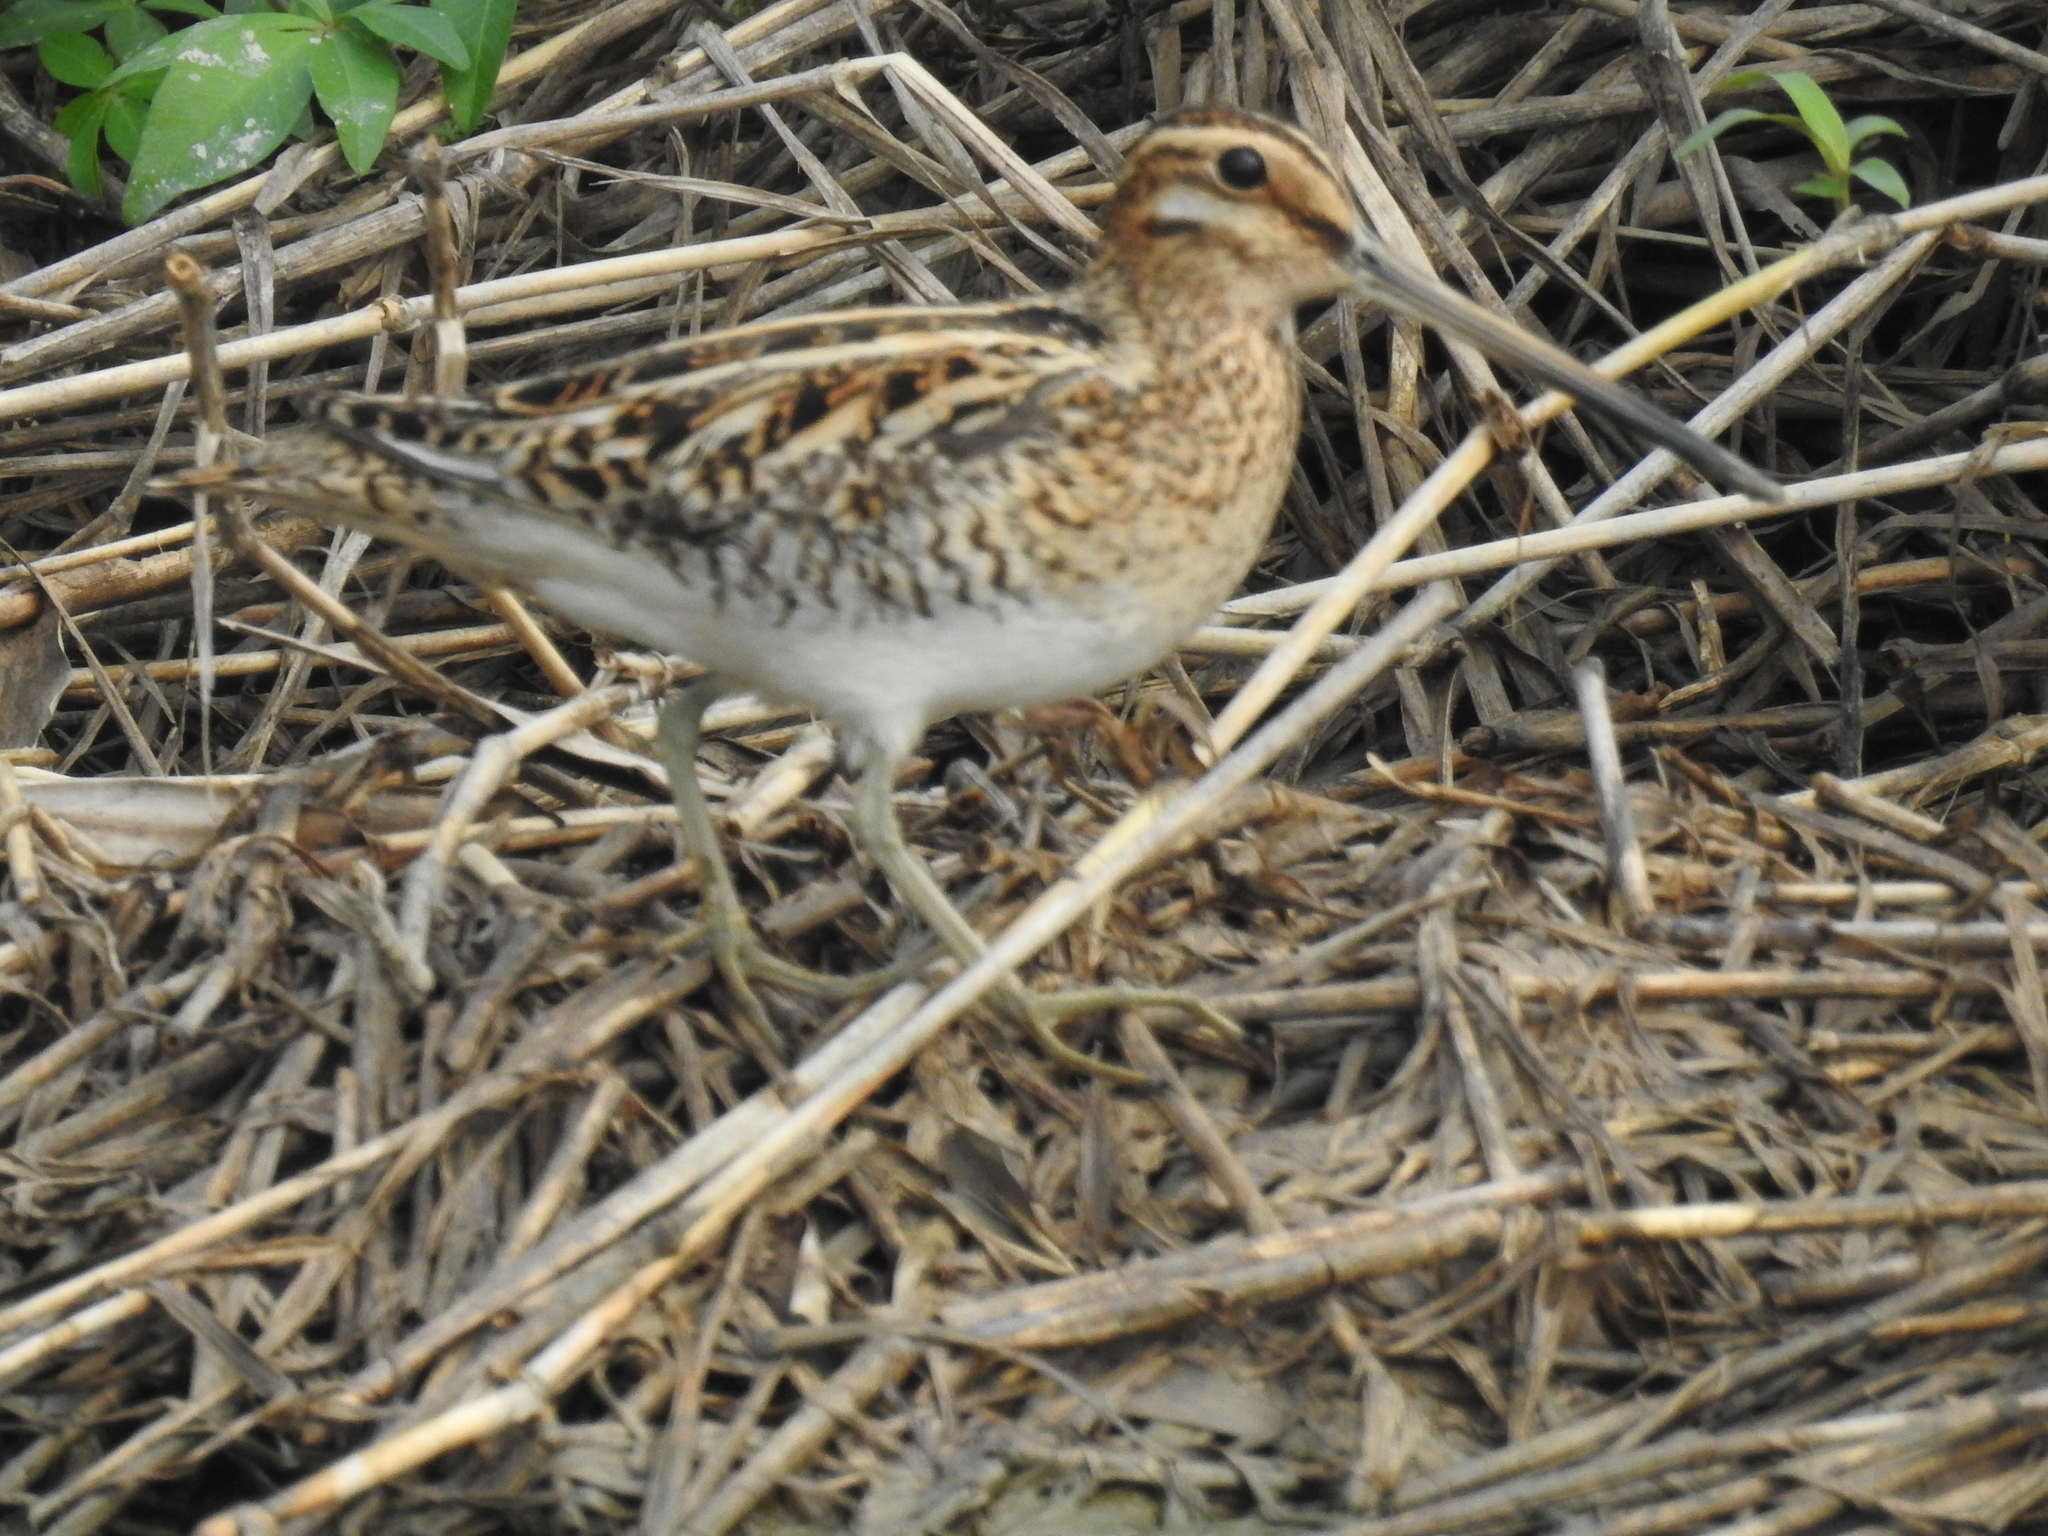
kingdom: Animalia
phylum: Chordata
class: Aves
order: Charadriiformes
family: Scolopacidae
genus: Gallinago
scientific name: Gallinago gallinago
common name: Common snipe
